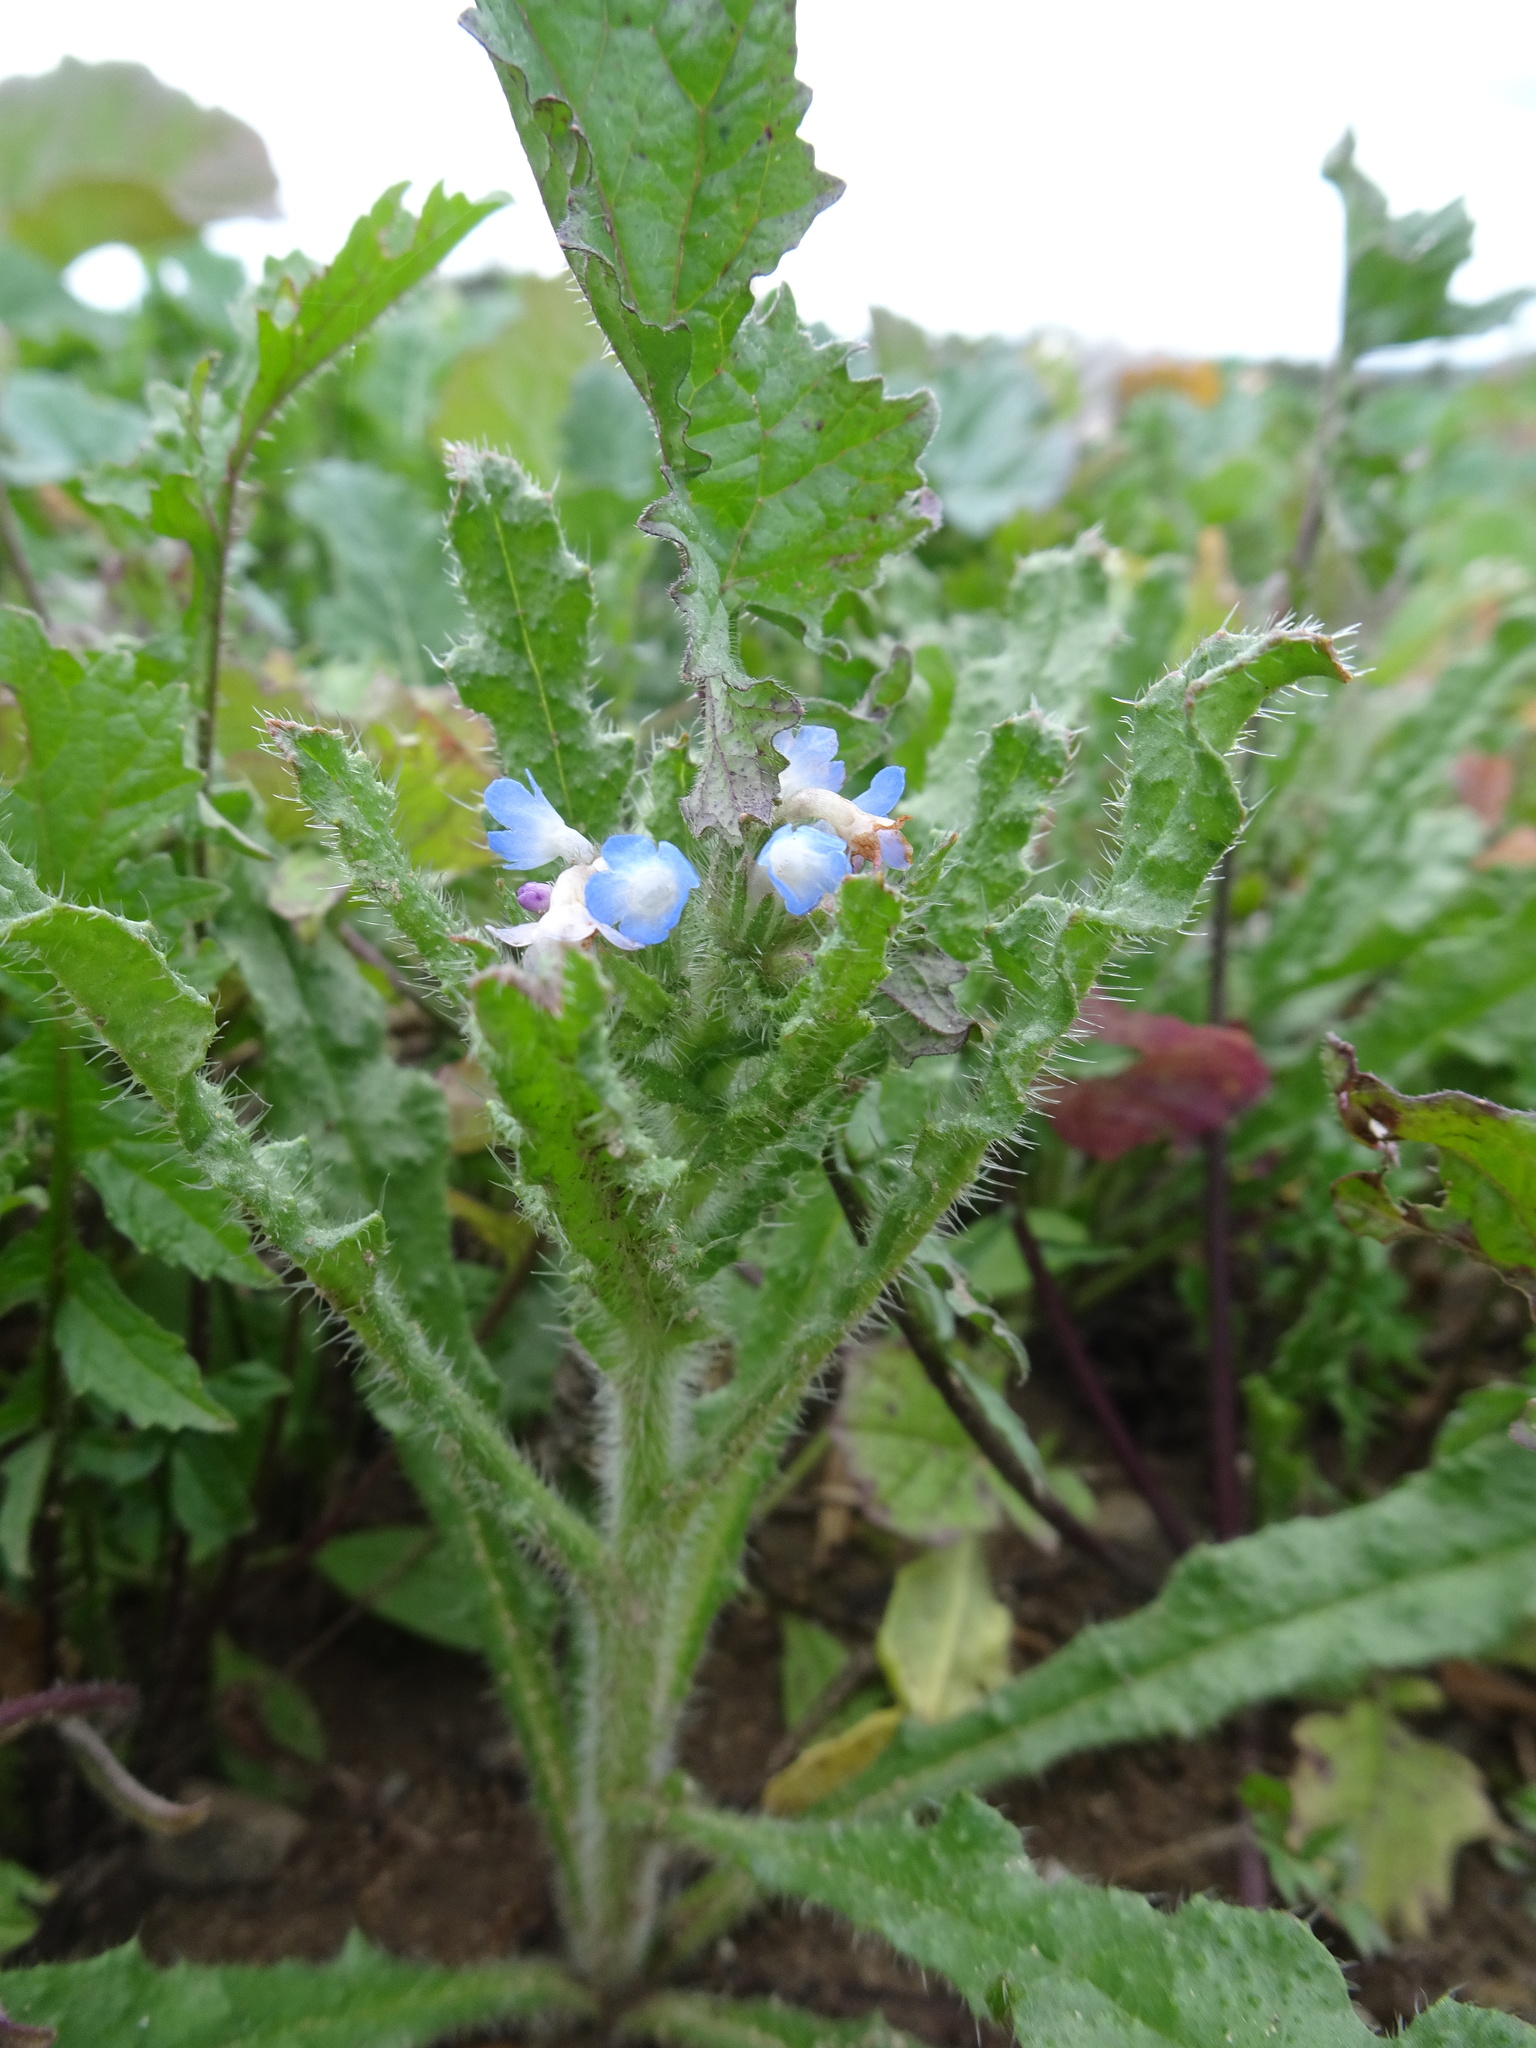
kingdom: Plantae
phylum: Tracheophyta
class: Magnoliopsida
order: Boraginales
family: Boraginaceae
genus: Lycopsis
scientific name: Lycopsis arvensis
